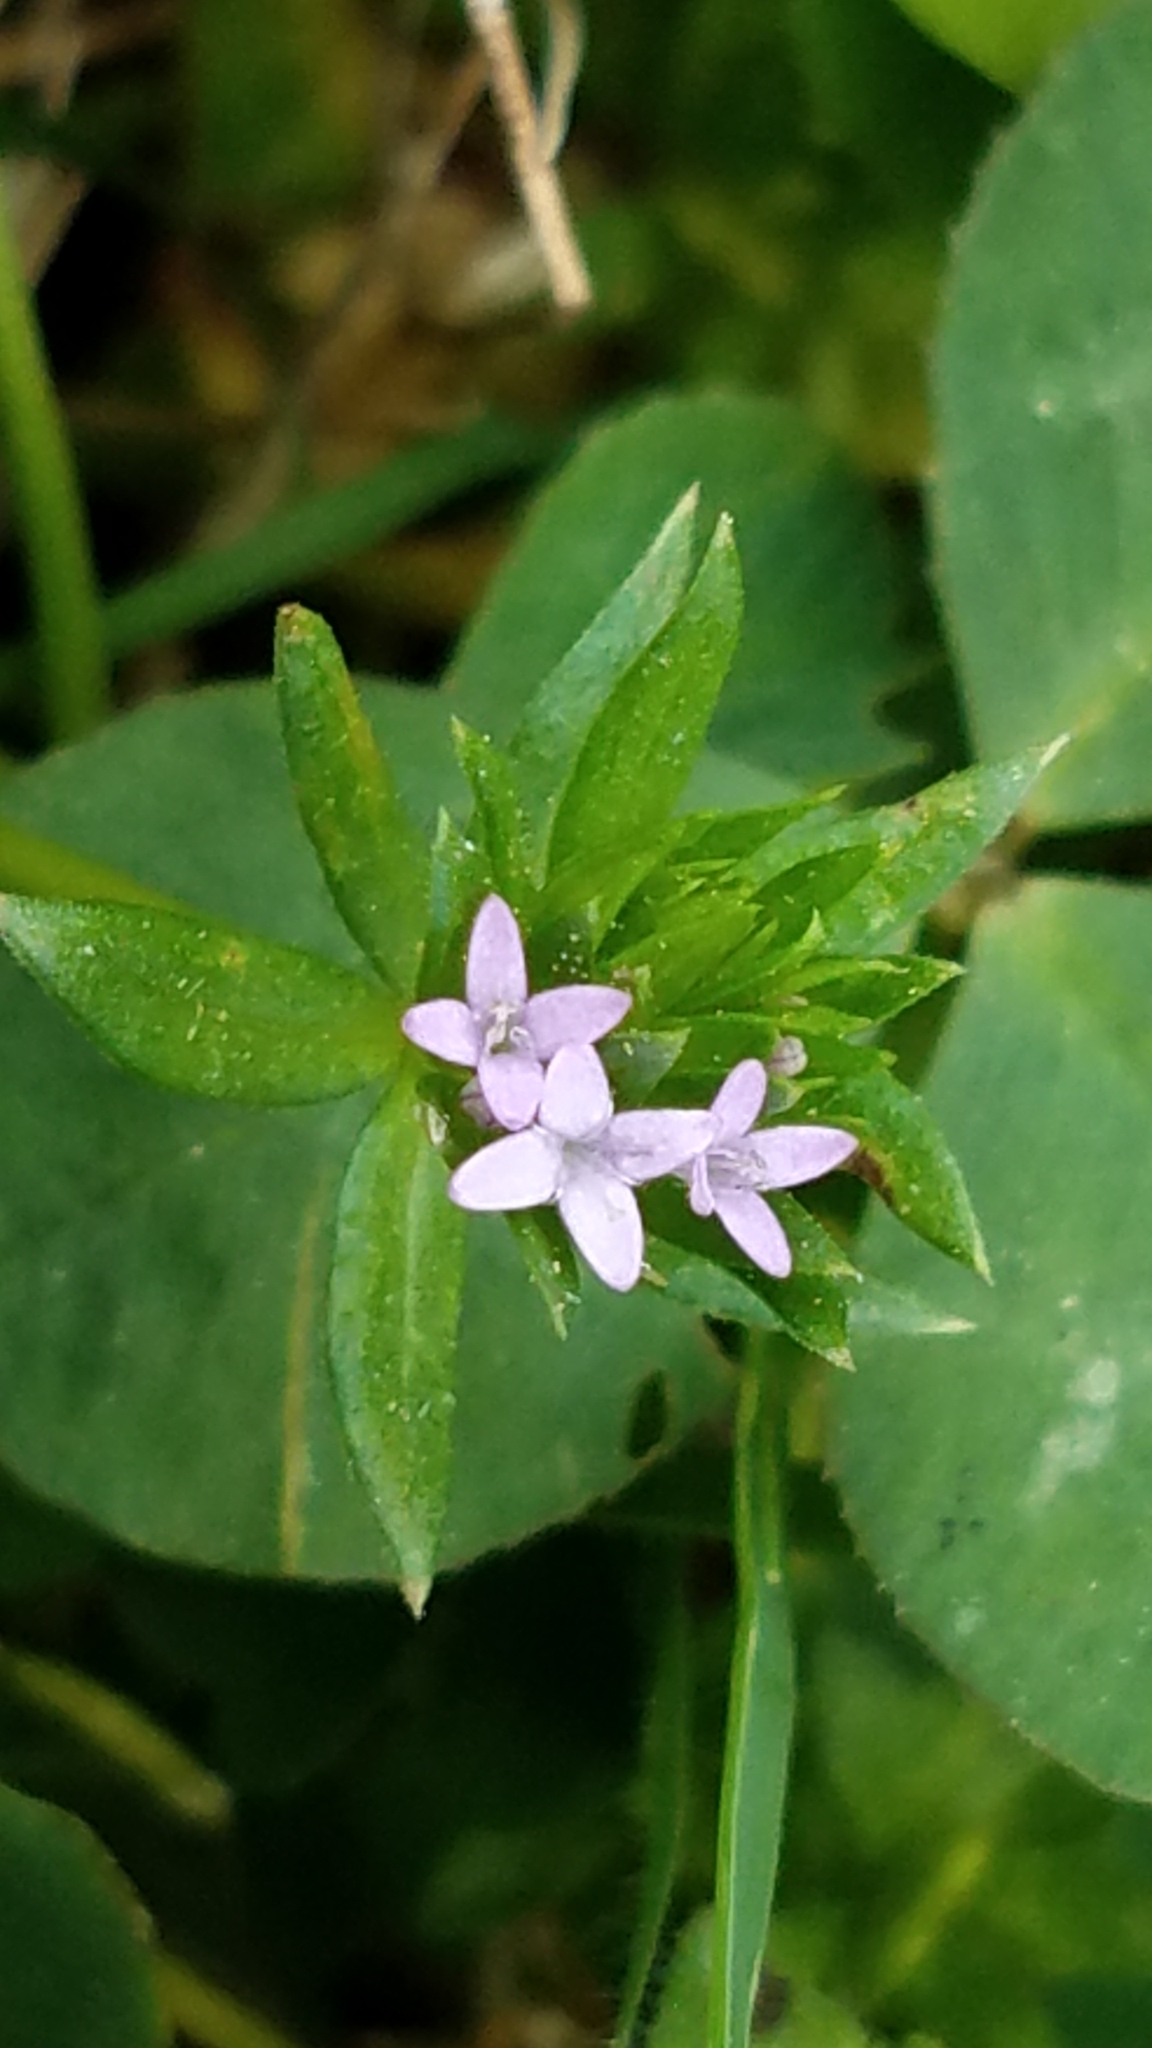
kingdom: Plantae
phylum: Tracheophyta
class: Magnoliopsida
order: Gentianales
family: Rubiaceae
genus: Sherardia
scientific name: Sherardia arvensis
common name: Field madder
